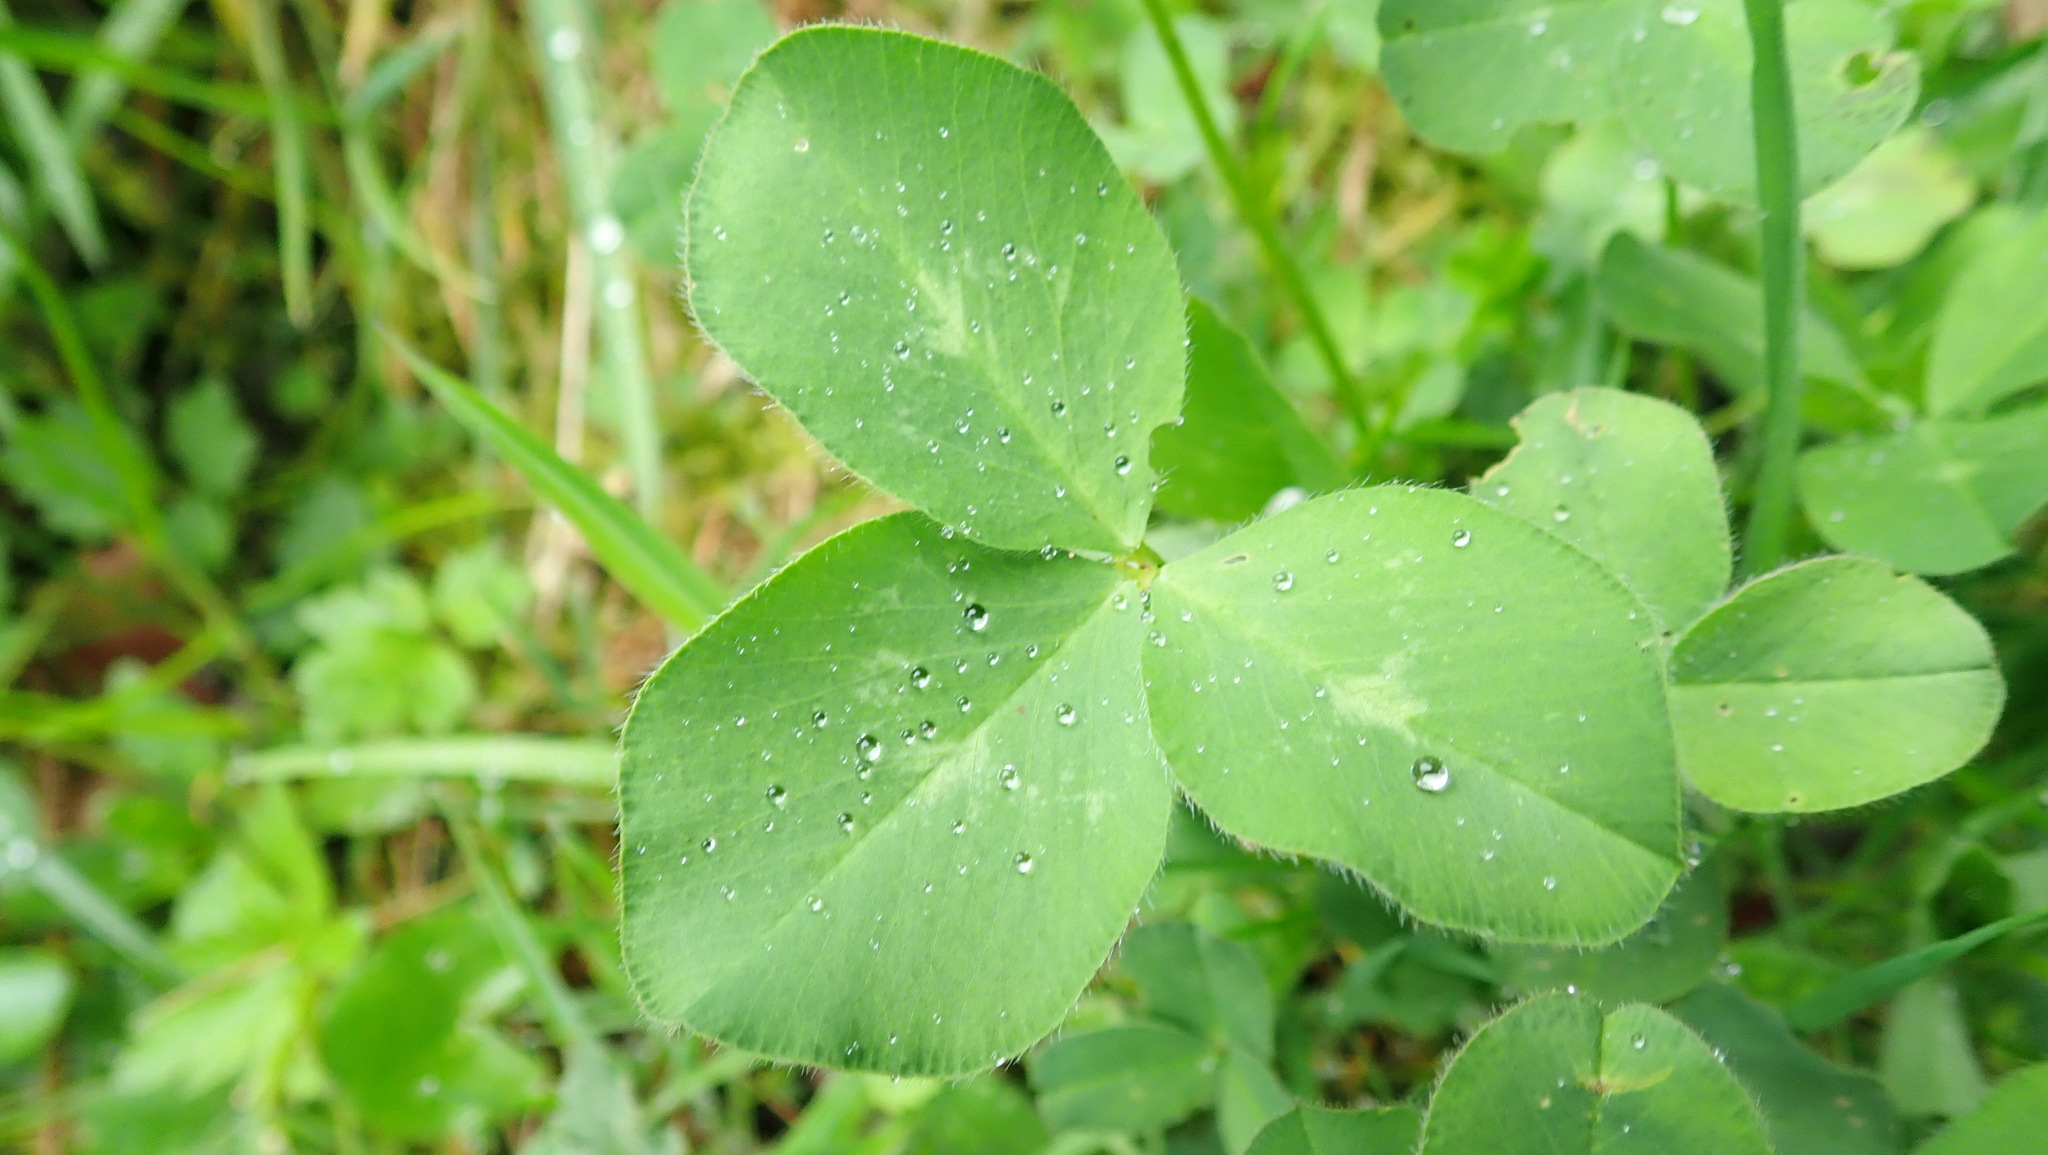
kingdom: Plantae
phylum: Tracheophyta
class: Magnoliopsida
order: Fabales
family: Fabaceae
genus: Trifolium
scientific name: Trifolium pratense
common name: Red clover
